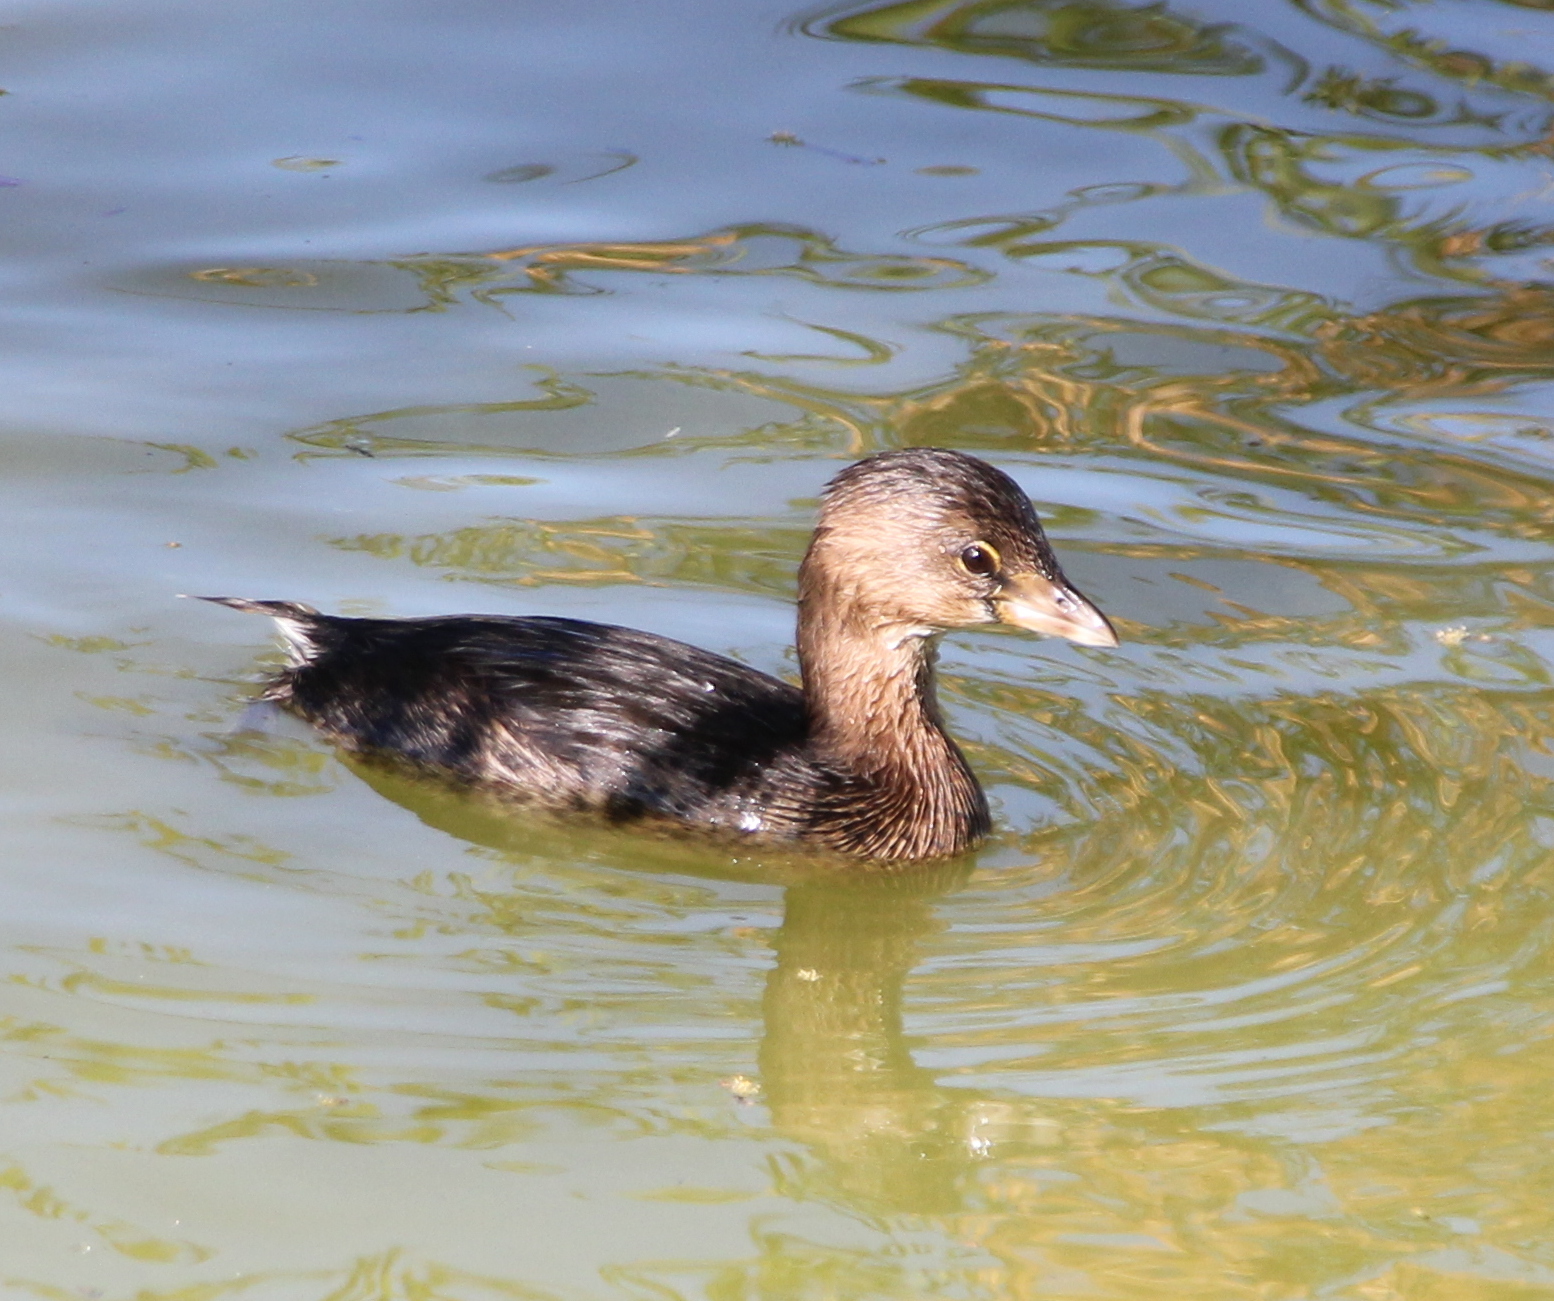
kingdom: Animalia
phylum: Chordata
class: Aves
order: Podicipediformes
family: Podicipedidae
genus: Podilymbus
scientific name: Podilymbus podiceps
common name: Pied-billed grebe
